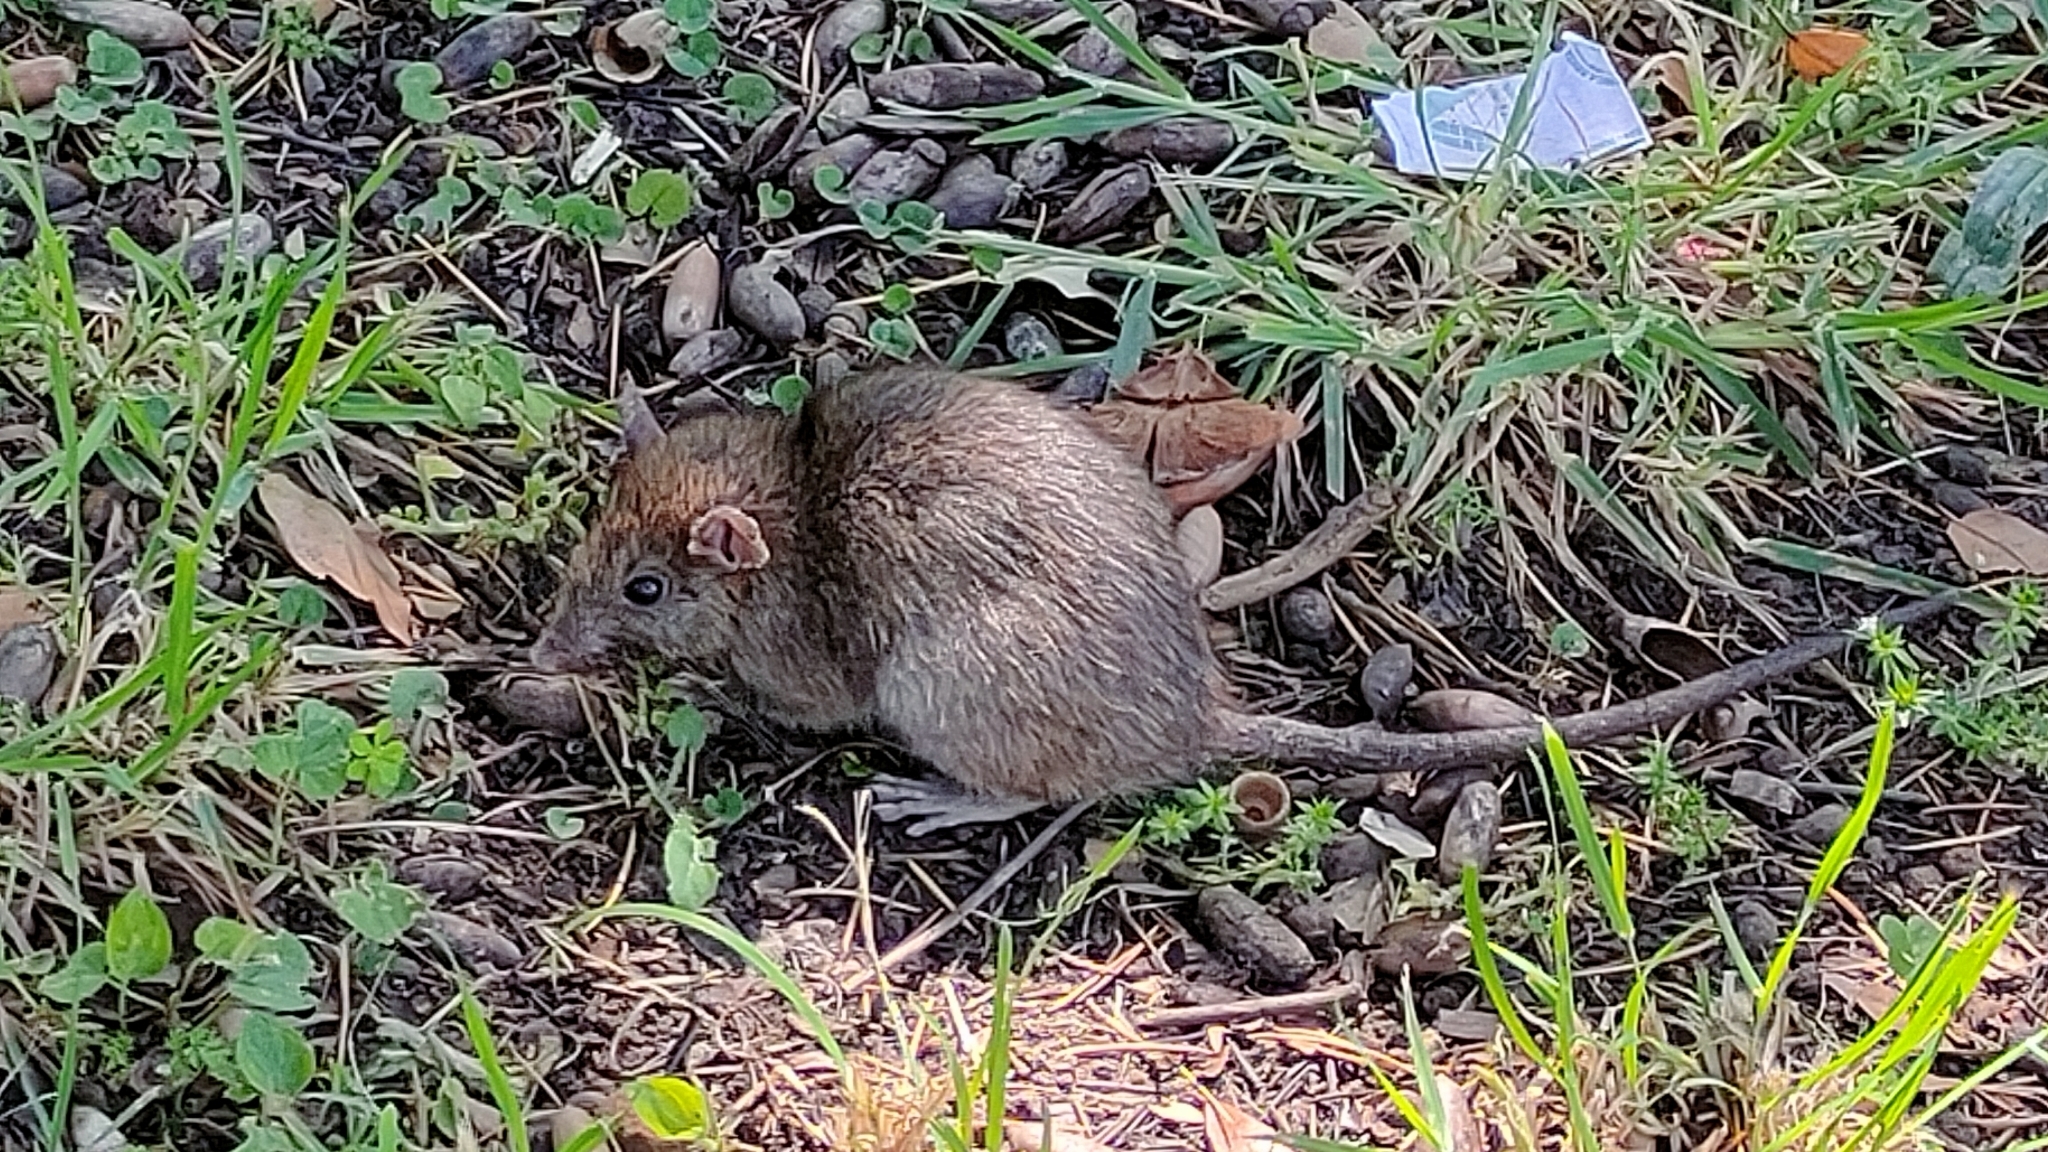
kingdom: Animalia
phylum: Chordata
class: Mammalia
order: Rodentia
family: Muridae
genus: Rattus
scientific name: Rattus rattus
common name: Black rat
